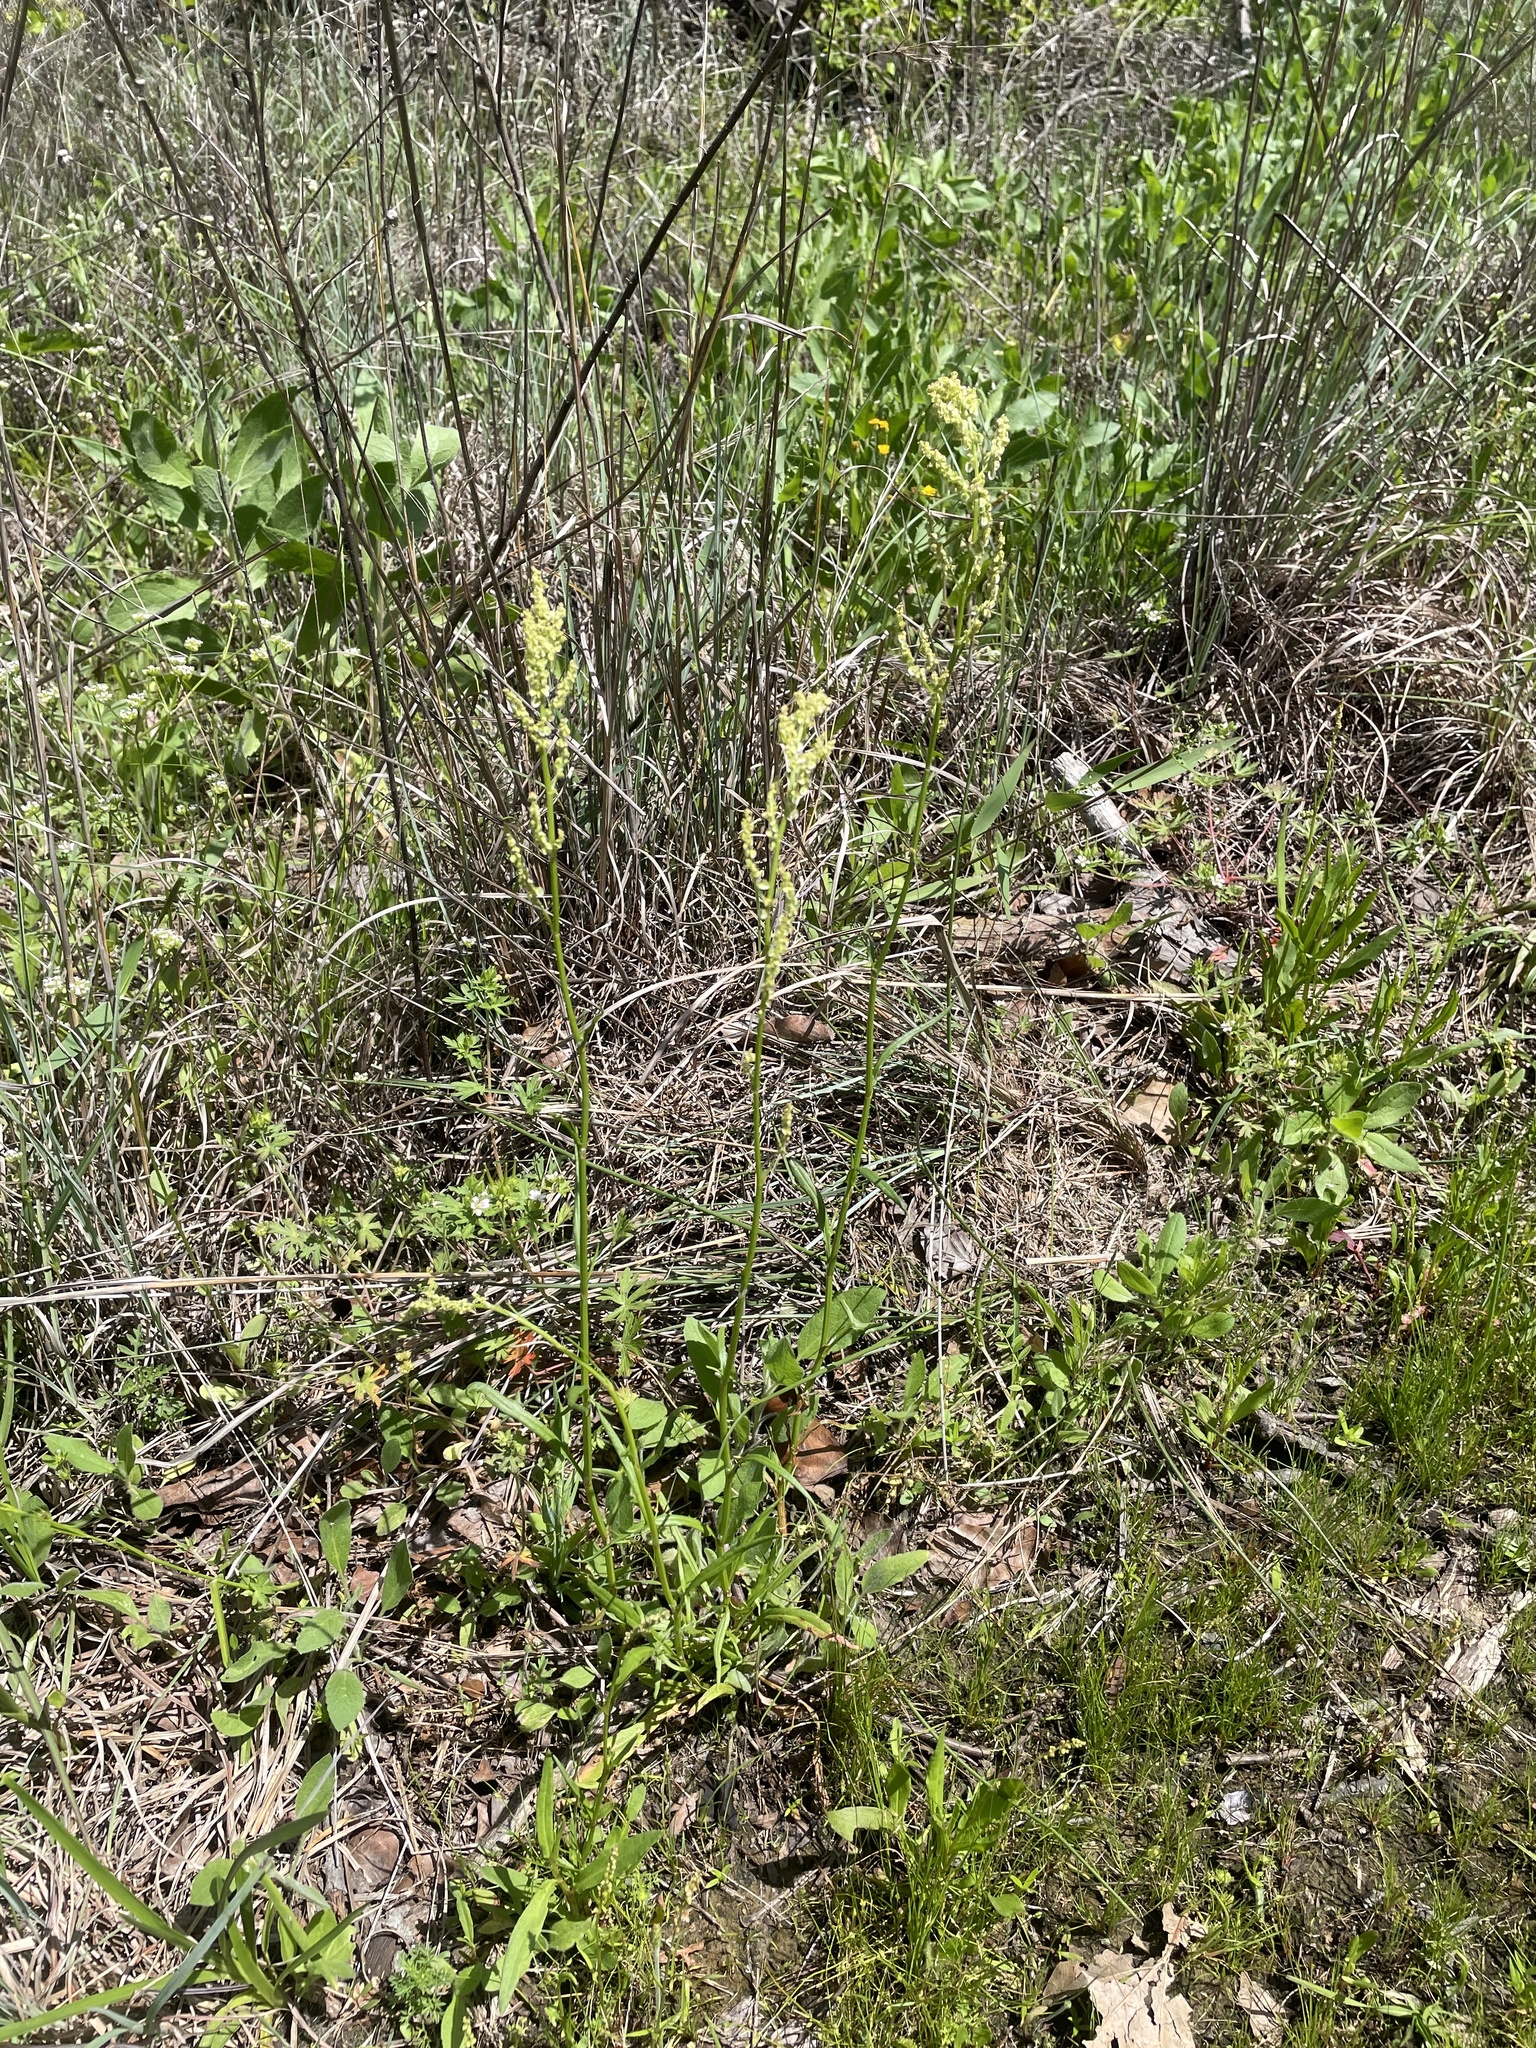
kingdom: Plantae
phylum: Tracheophyta
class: Magnoliopsida
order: Caryophyllales
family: Polygonaceae
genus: Rumex
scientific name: Rumex hastatulus
